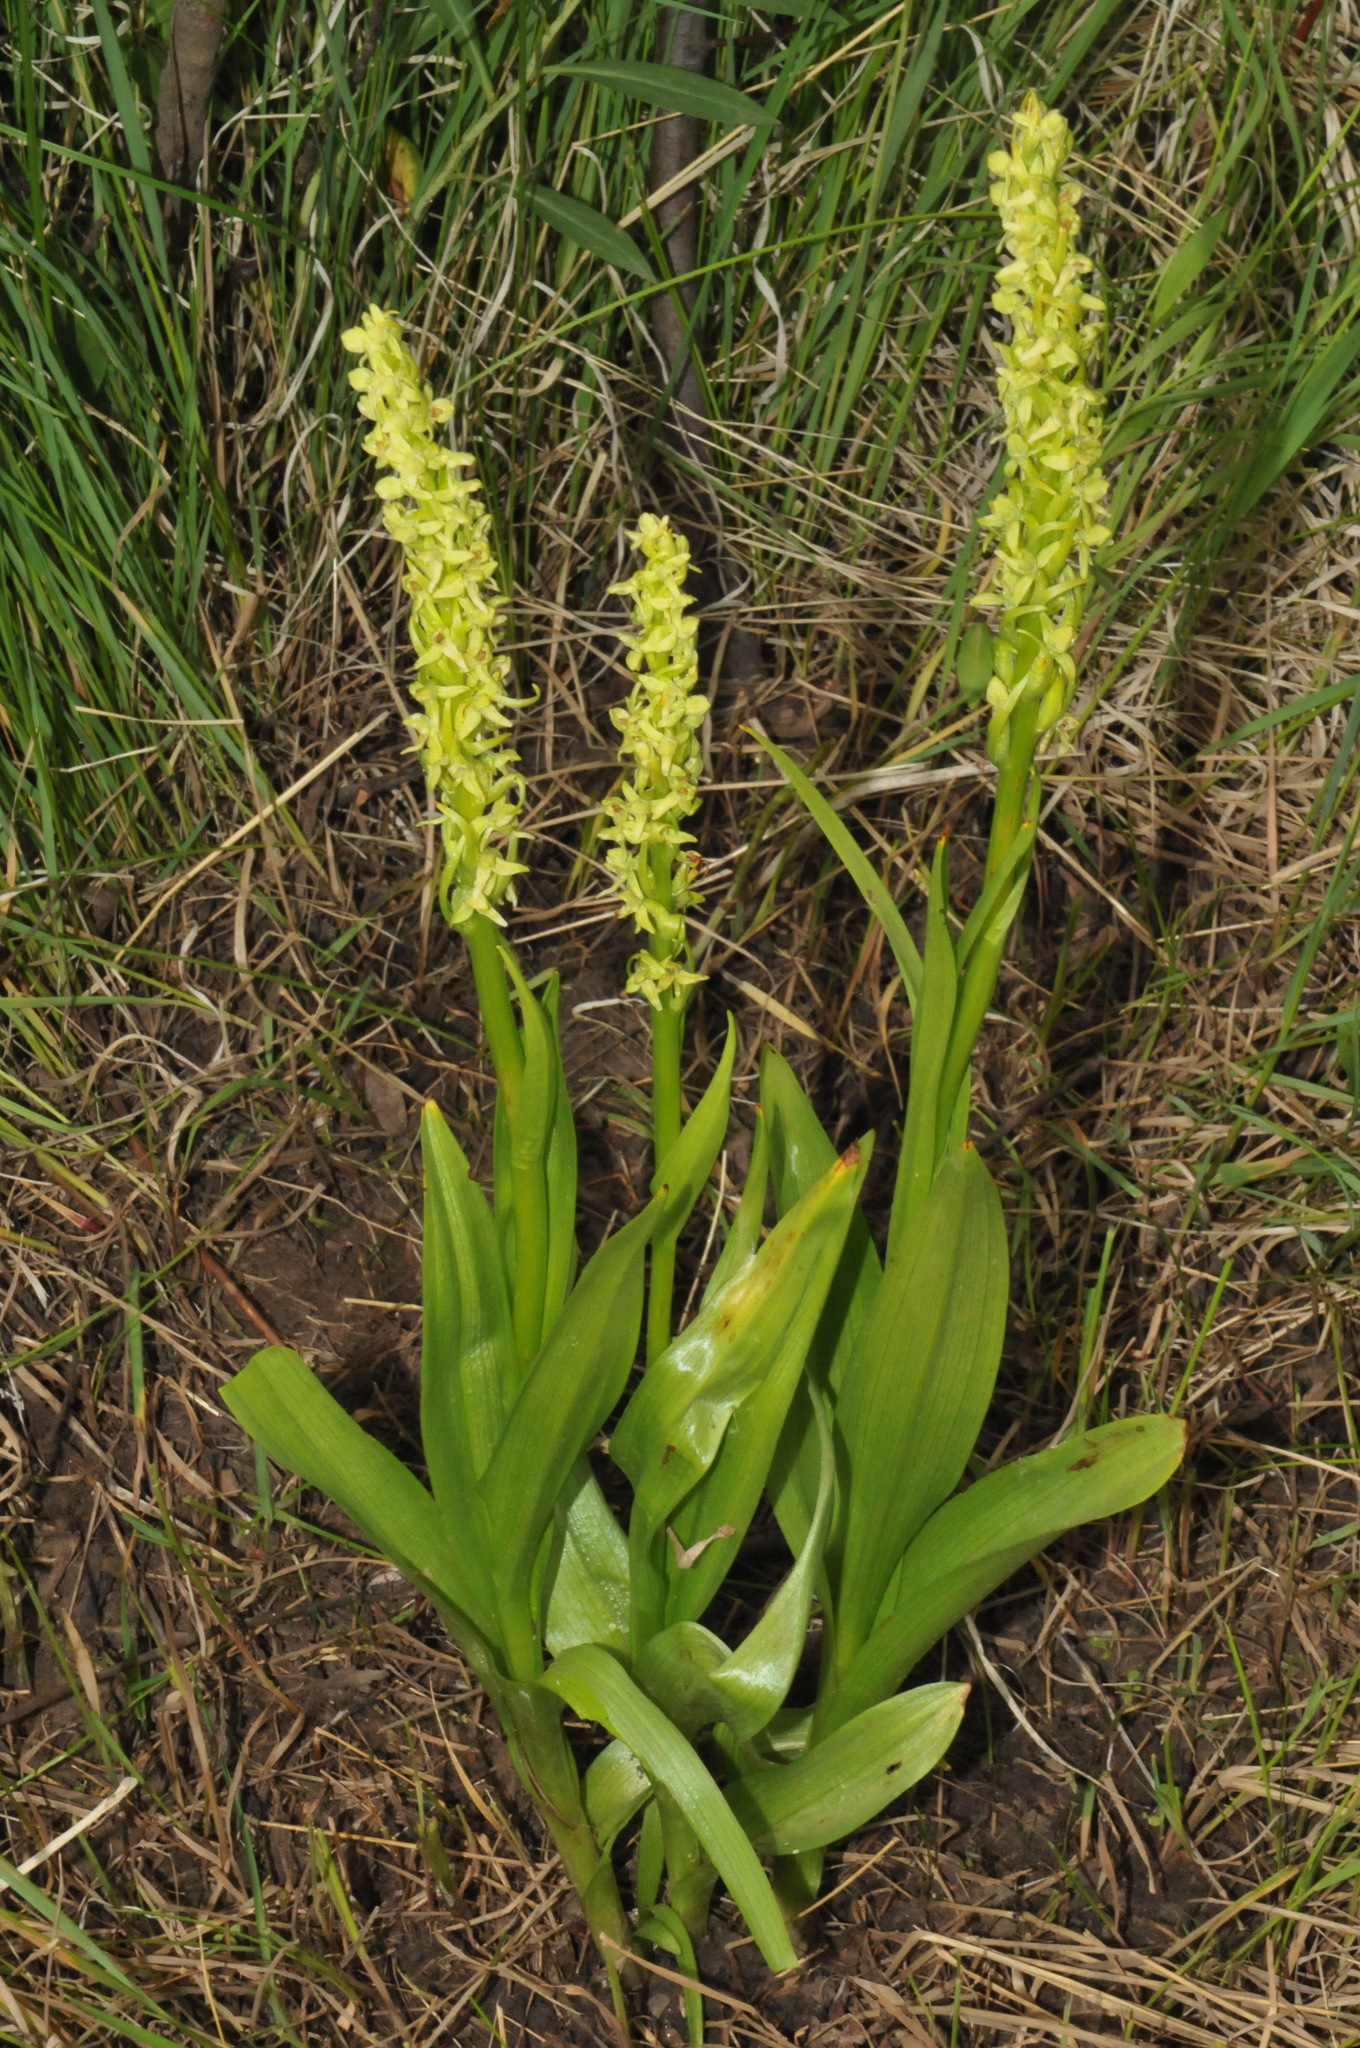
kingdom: Plantae
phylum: Tracheophyta
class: Liliopsida
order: Asparagales
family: Orchidaceae
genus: Platanthera
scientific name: Platanthera huronensis
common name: Fragrant green orchid
